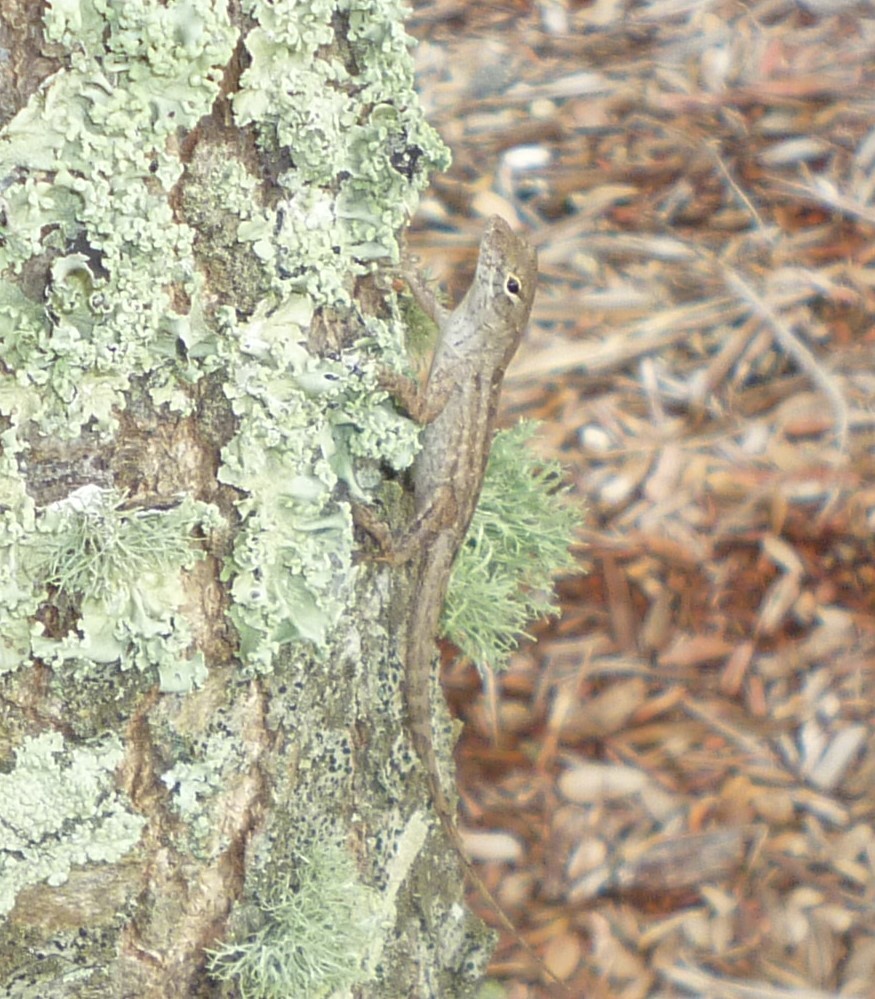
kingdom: Animalia
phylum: Chordata
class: Squamata
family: Dactyloidae
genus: Anolis
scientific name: Anolis sagrei
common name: Brown anole
